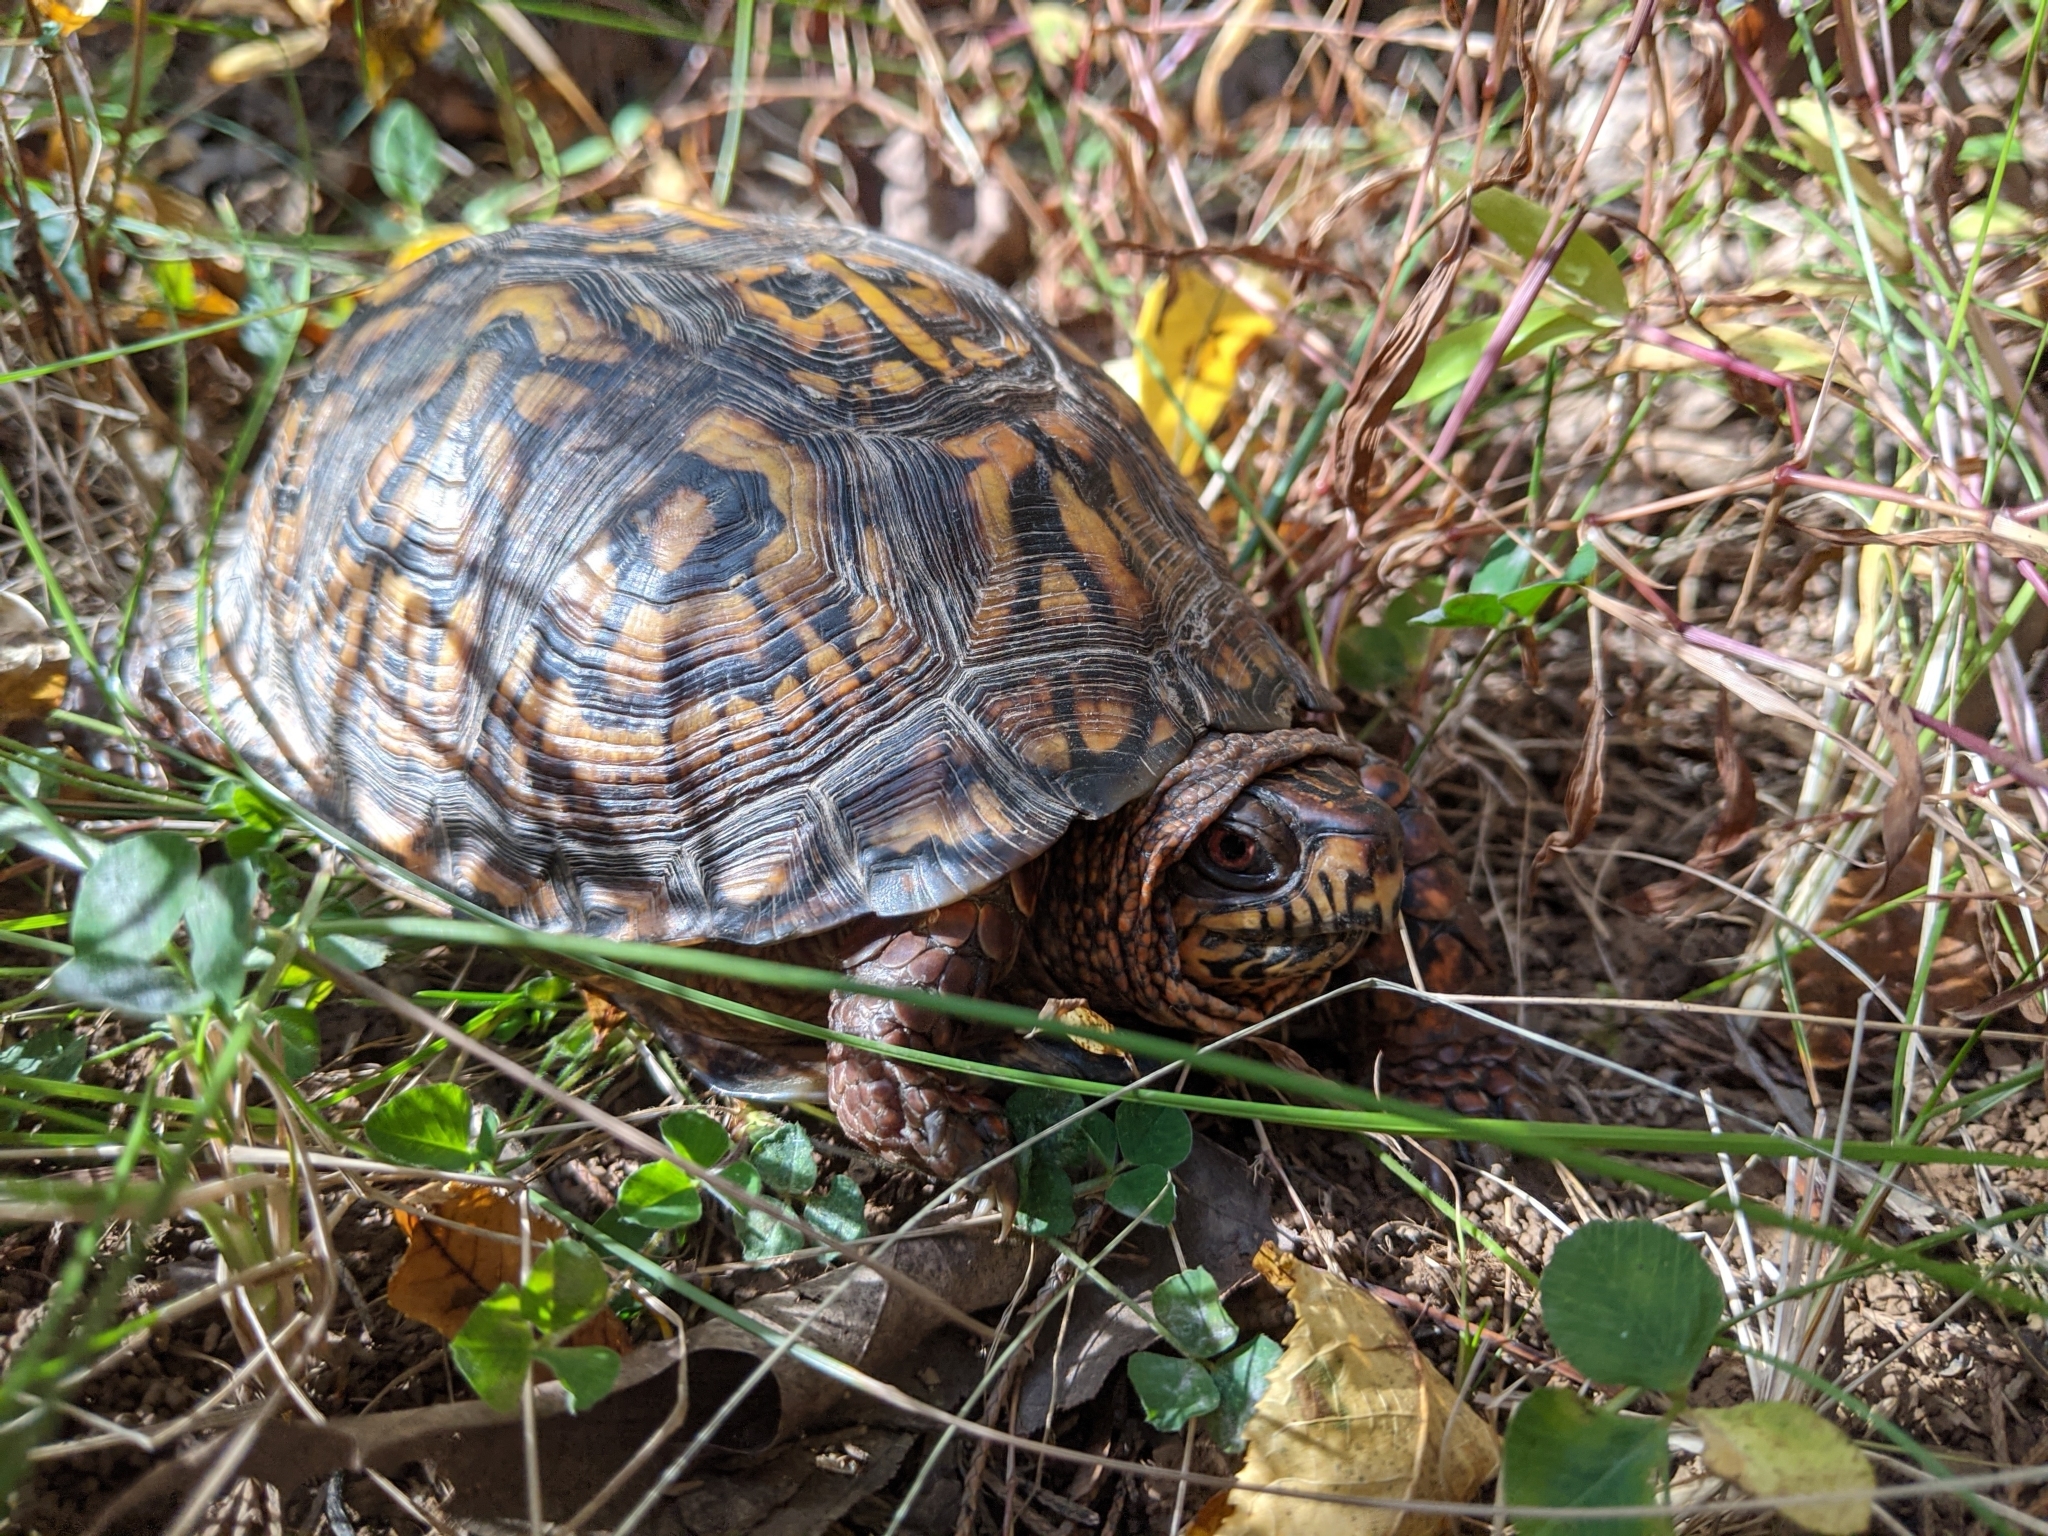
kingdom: Animalia
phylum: Chordata
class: Testudines
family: Emydidae
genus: Terrapene
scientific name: Terrapene carolina
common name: Common box turtle
